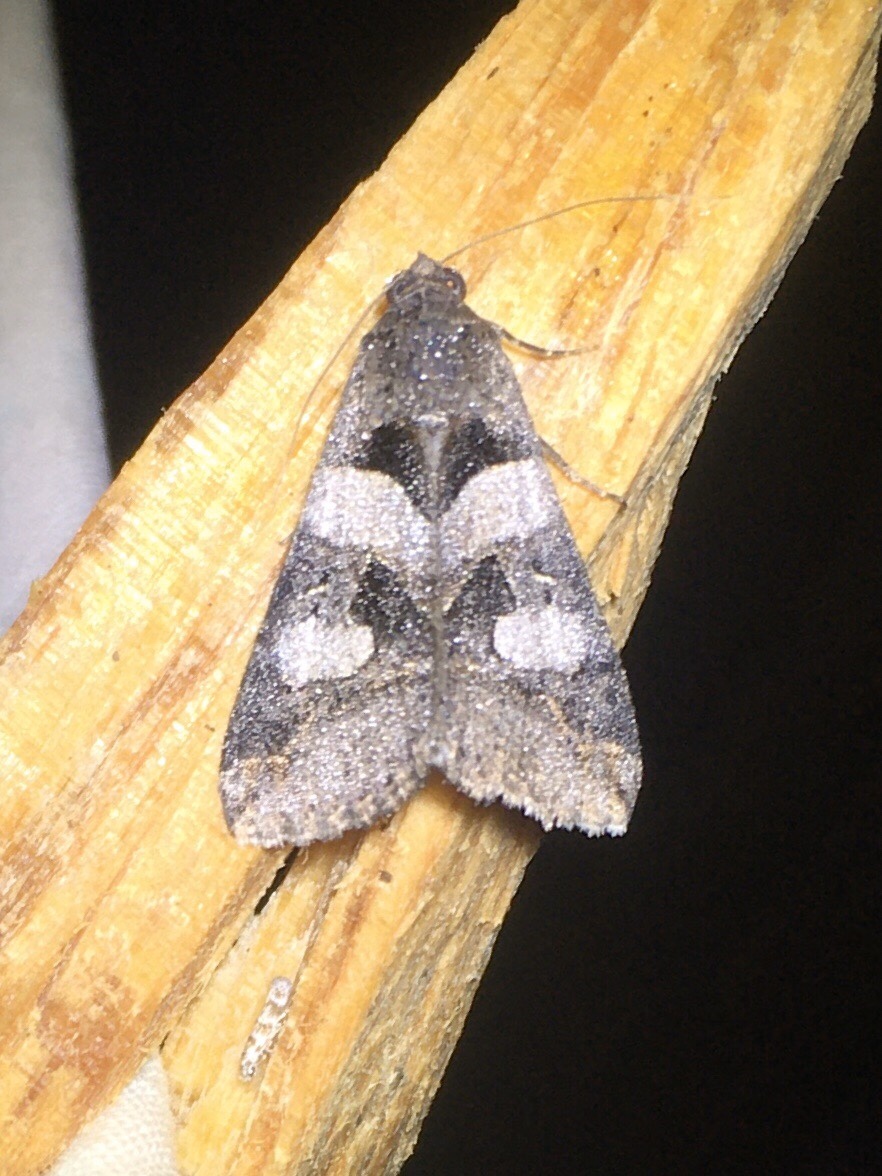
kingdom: Animalia
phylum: Arthropoda
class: Insecta
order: Lepidoptera
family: Erebidae
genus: Melipotis
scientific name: Melipotis florida
